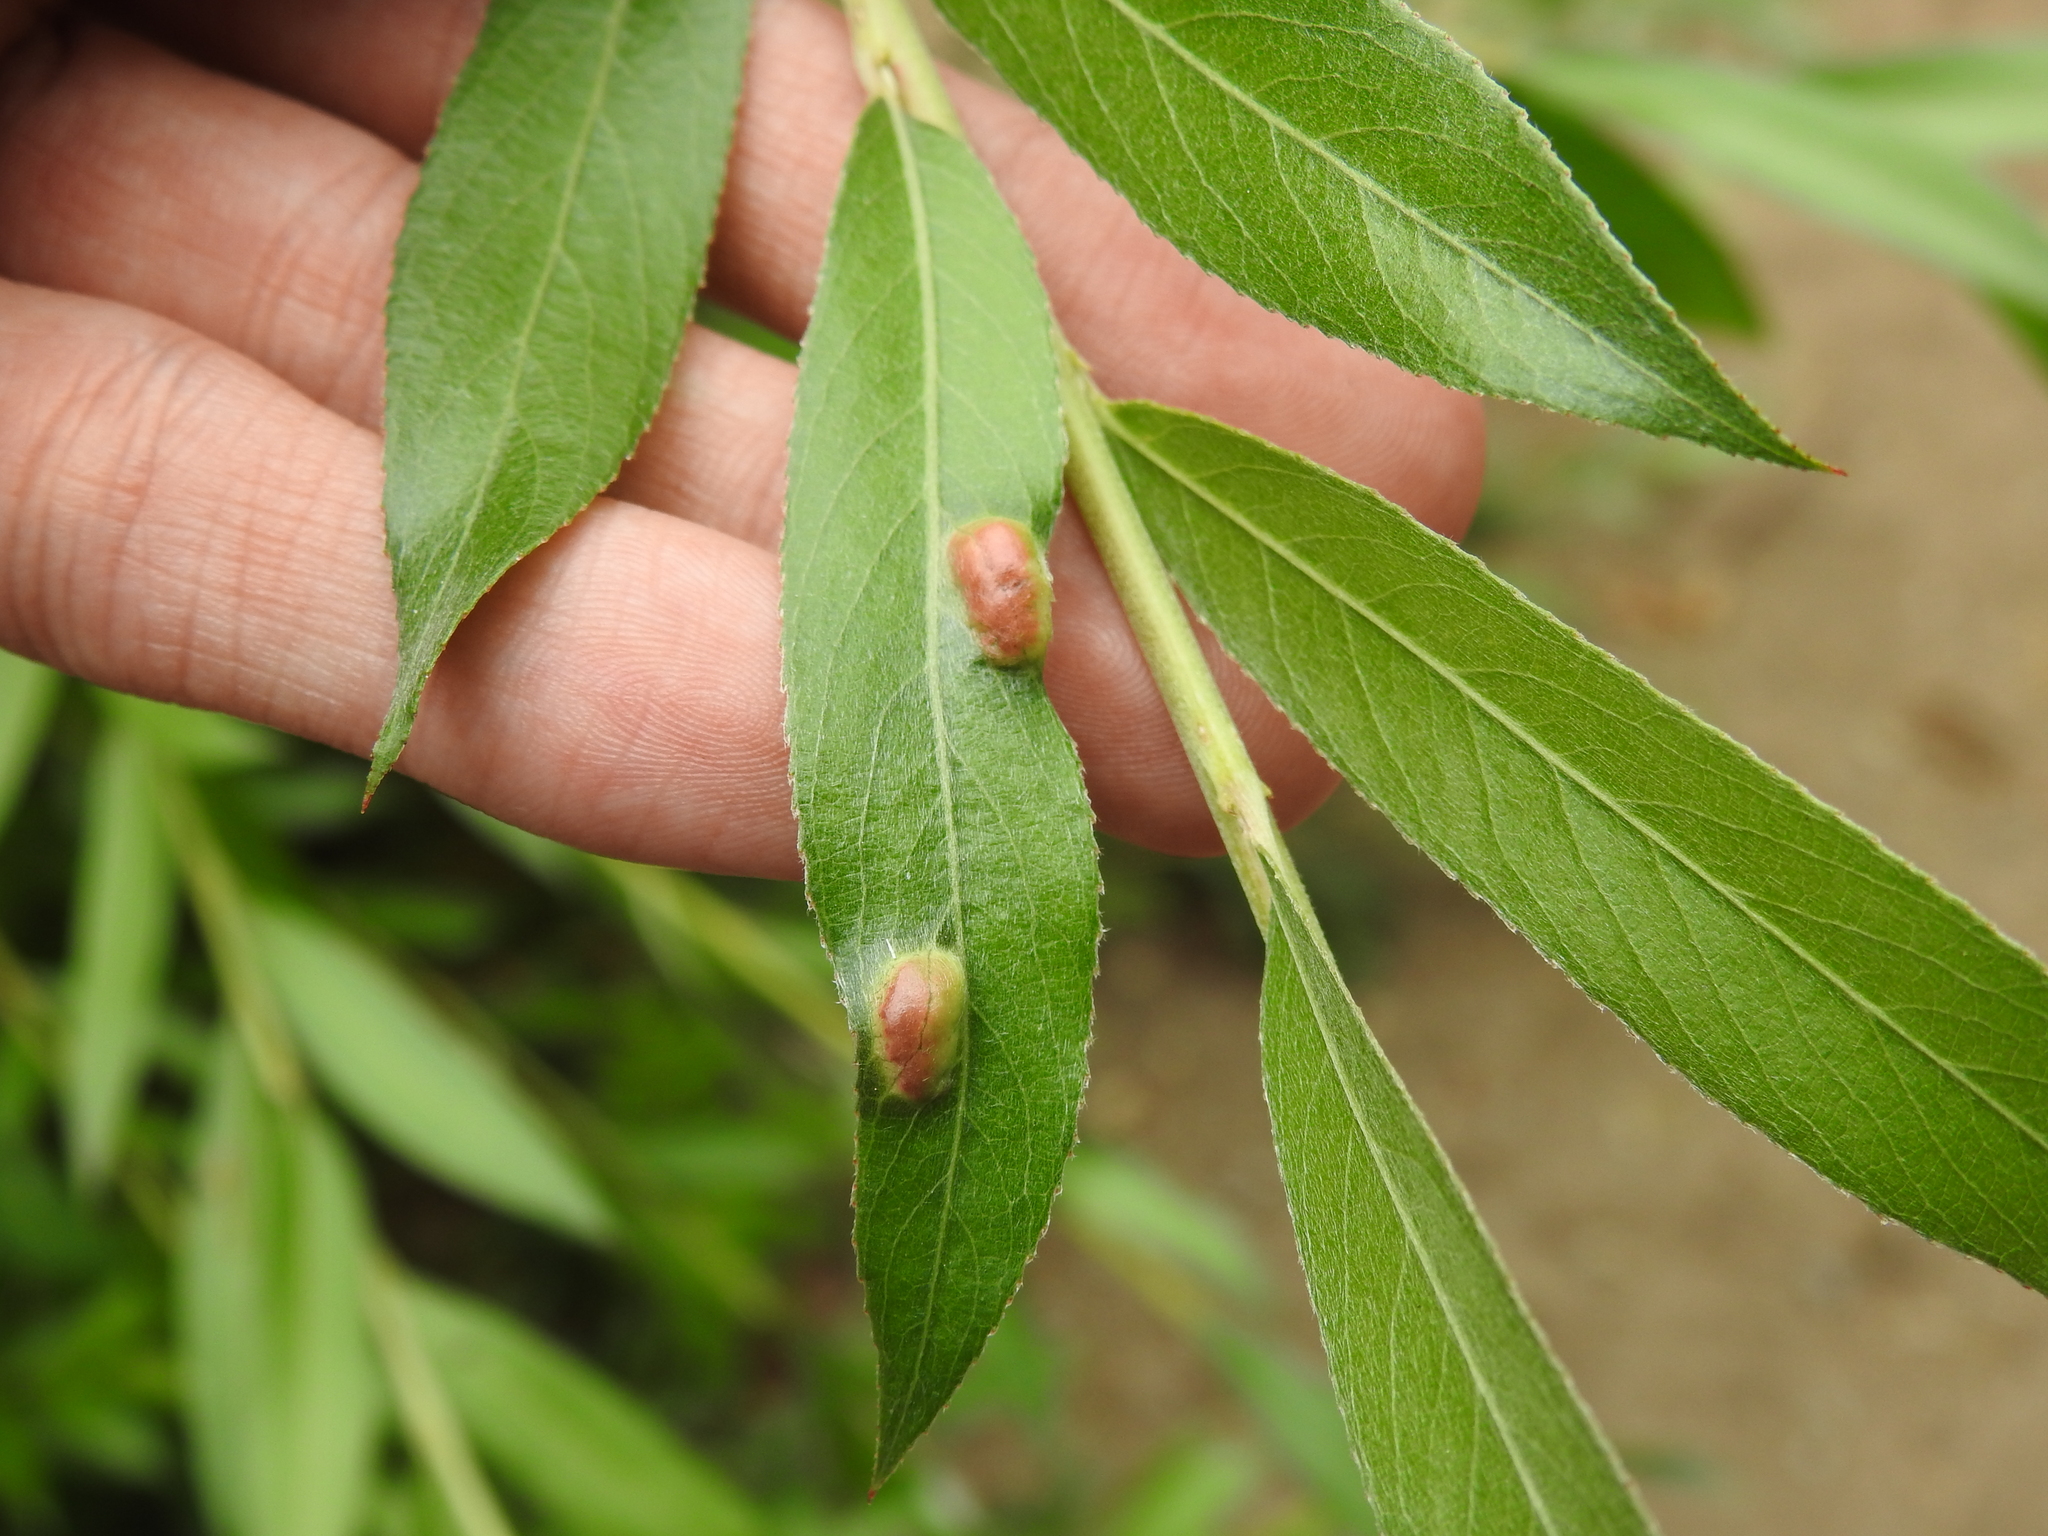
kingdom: Animalia
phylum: Arthropoda
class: Insecta
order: Hymenoptera
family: Tenthredinidae
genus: Pontania
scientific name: Pontania proxima
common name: Common sawfly
